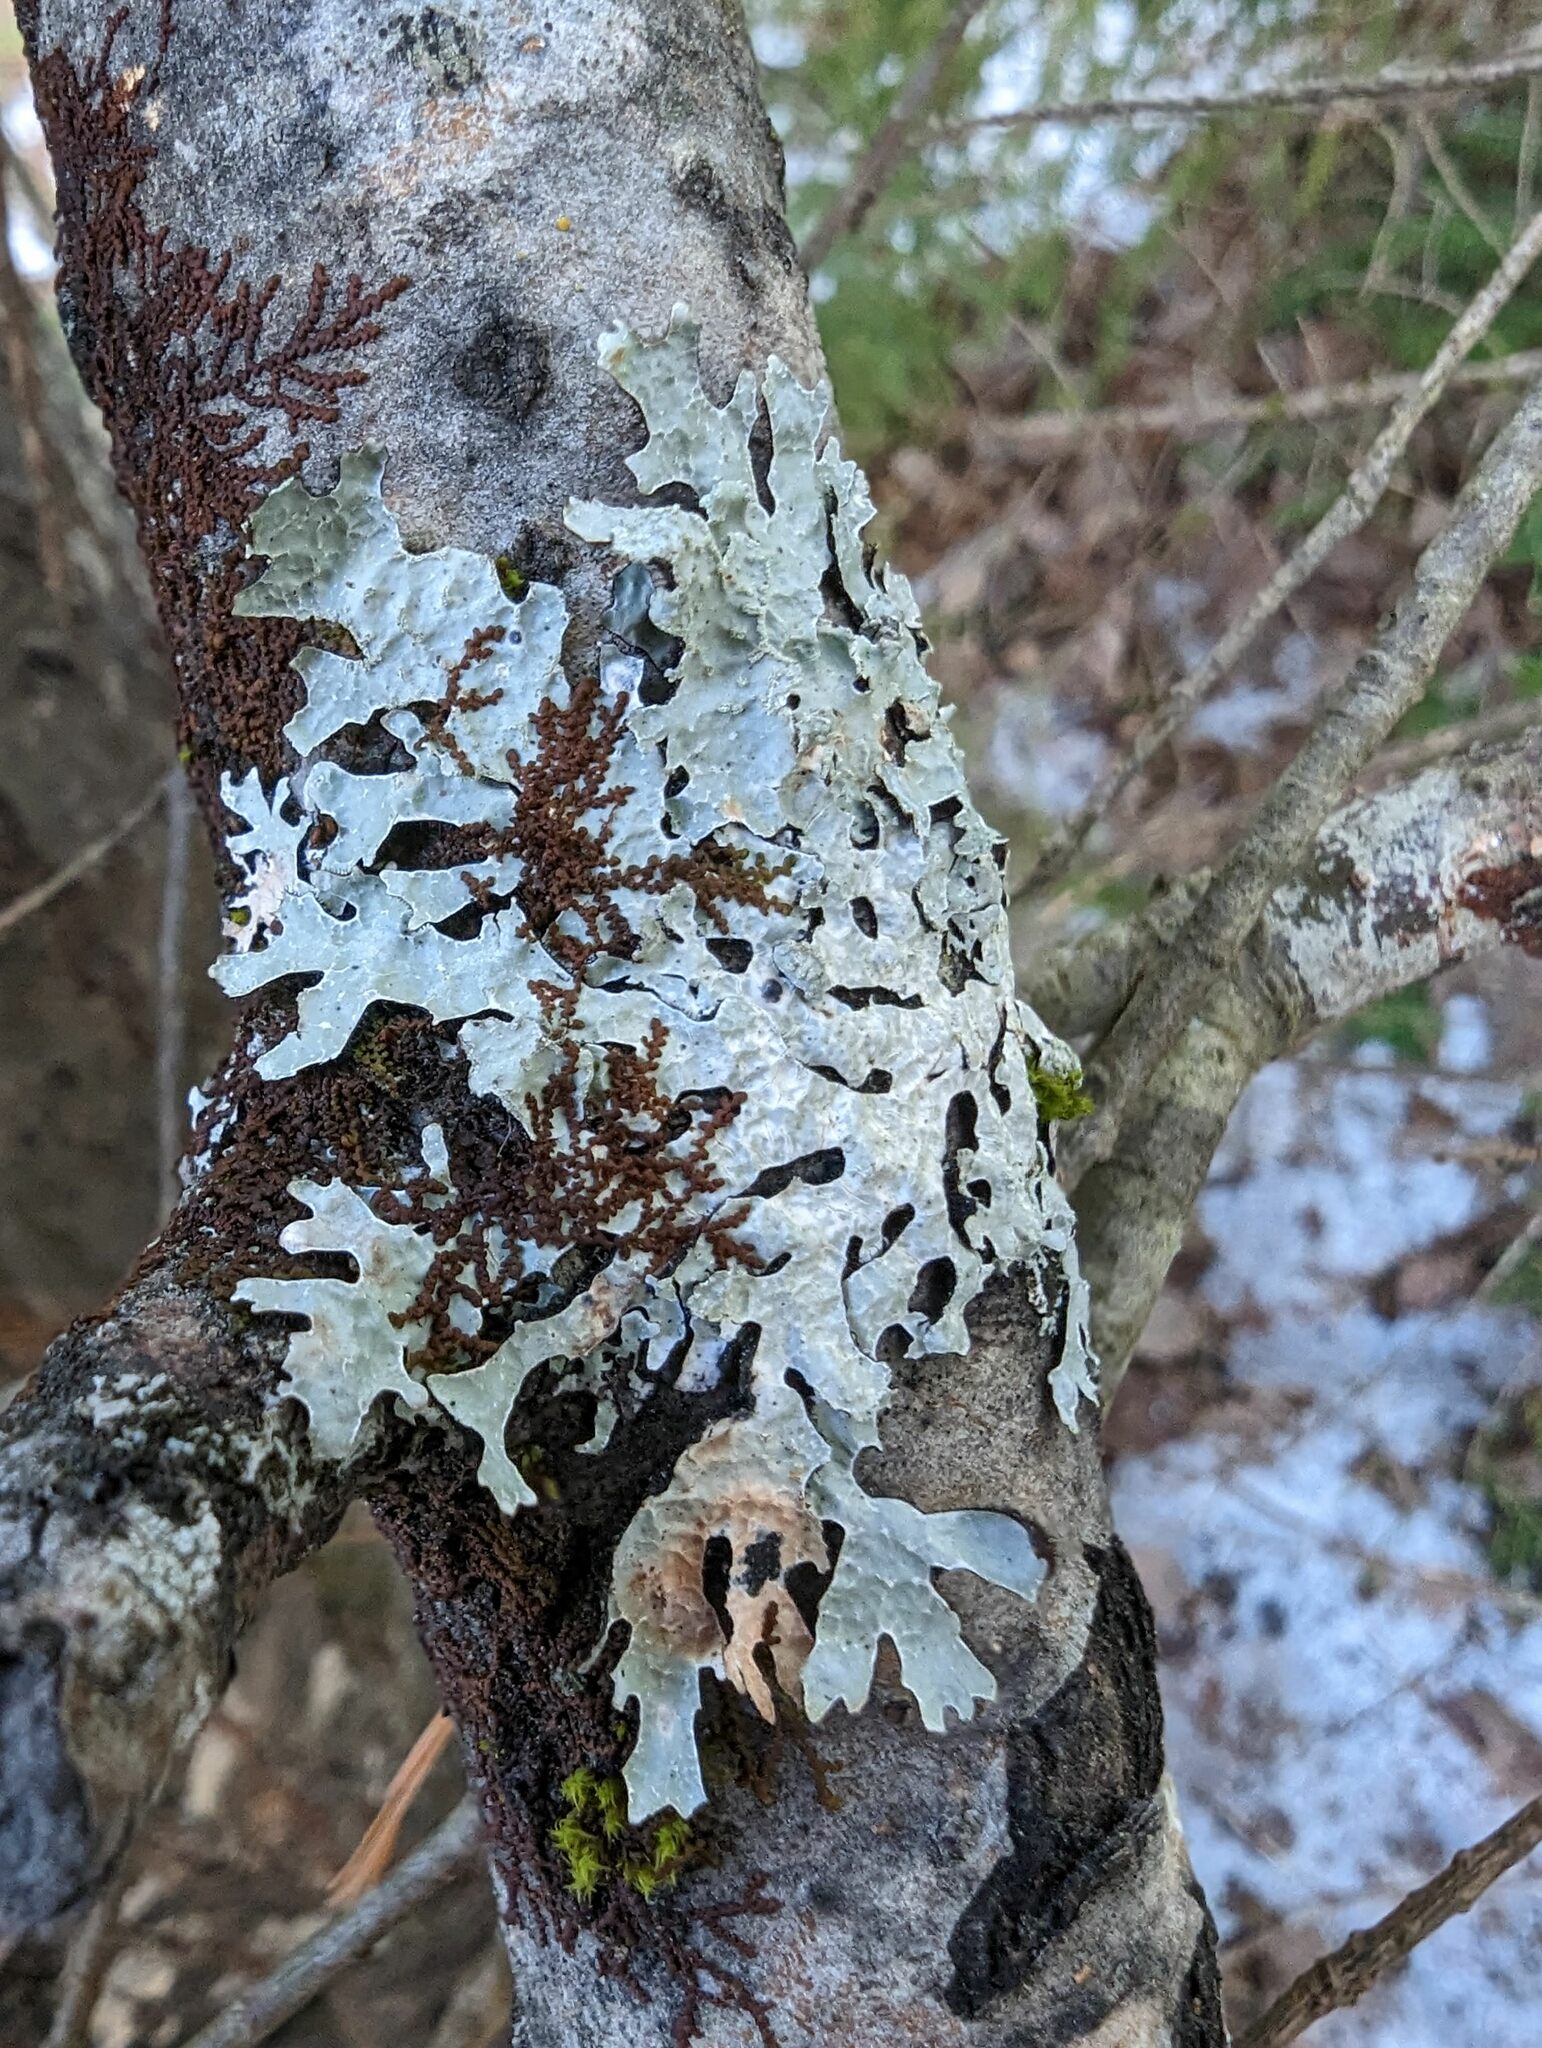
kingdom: Plantae
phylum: Marchantiophyta
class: Jungermanniopsida
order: Porellales
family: Frullaniaceae
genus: Frullania
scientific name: Frullania eboracensis
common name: New york scalewort
